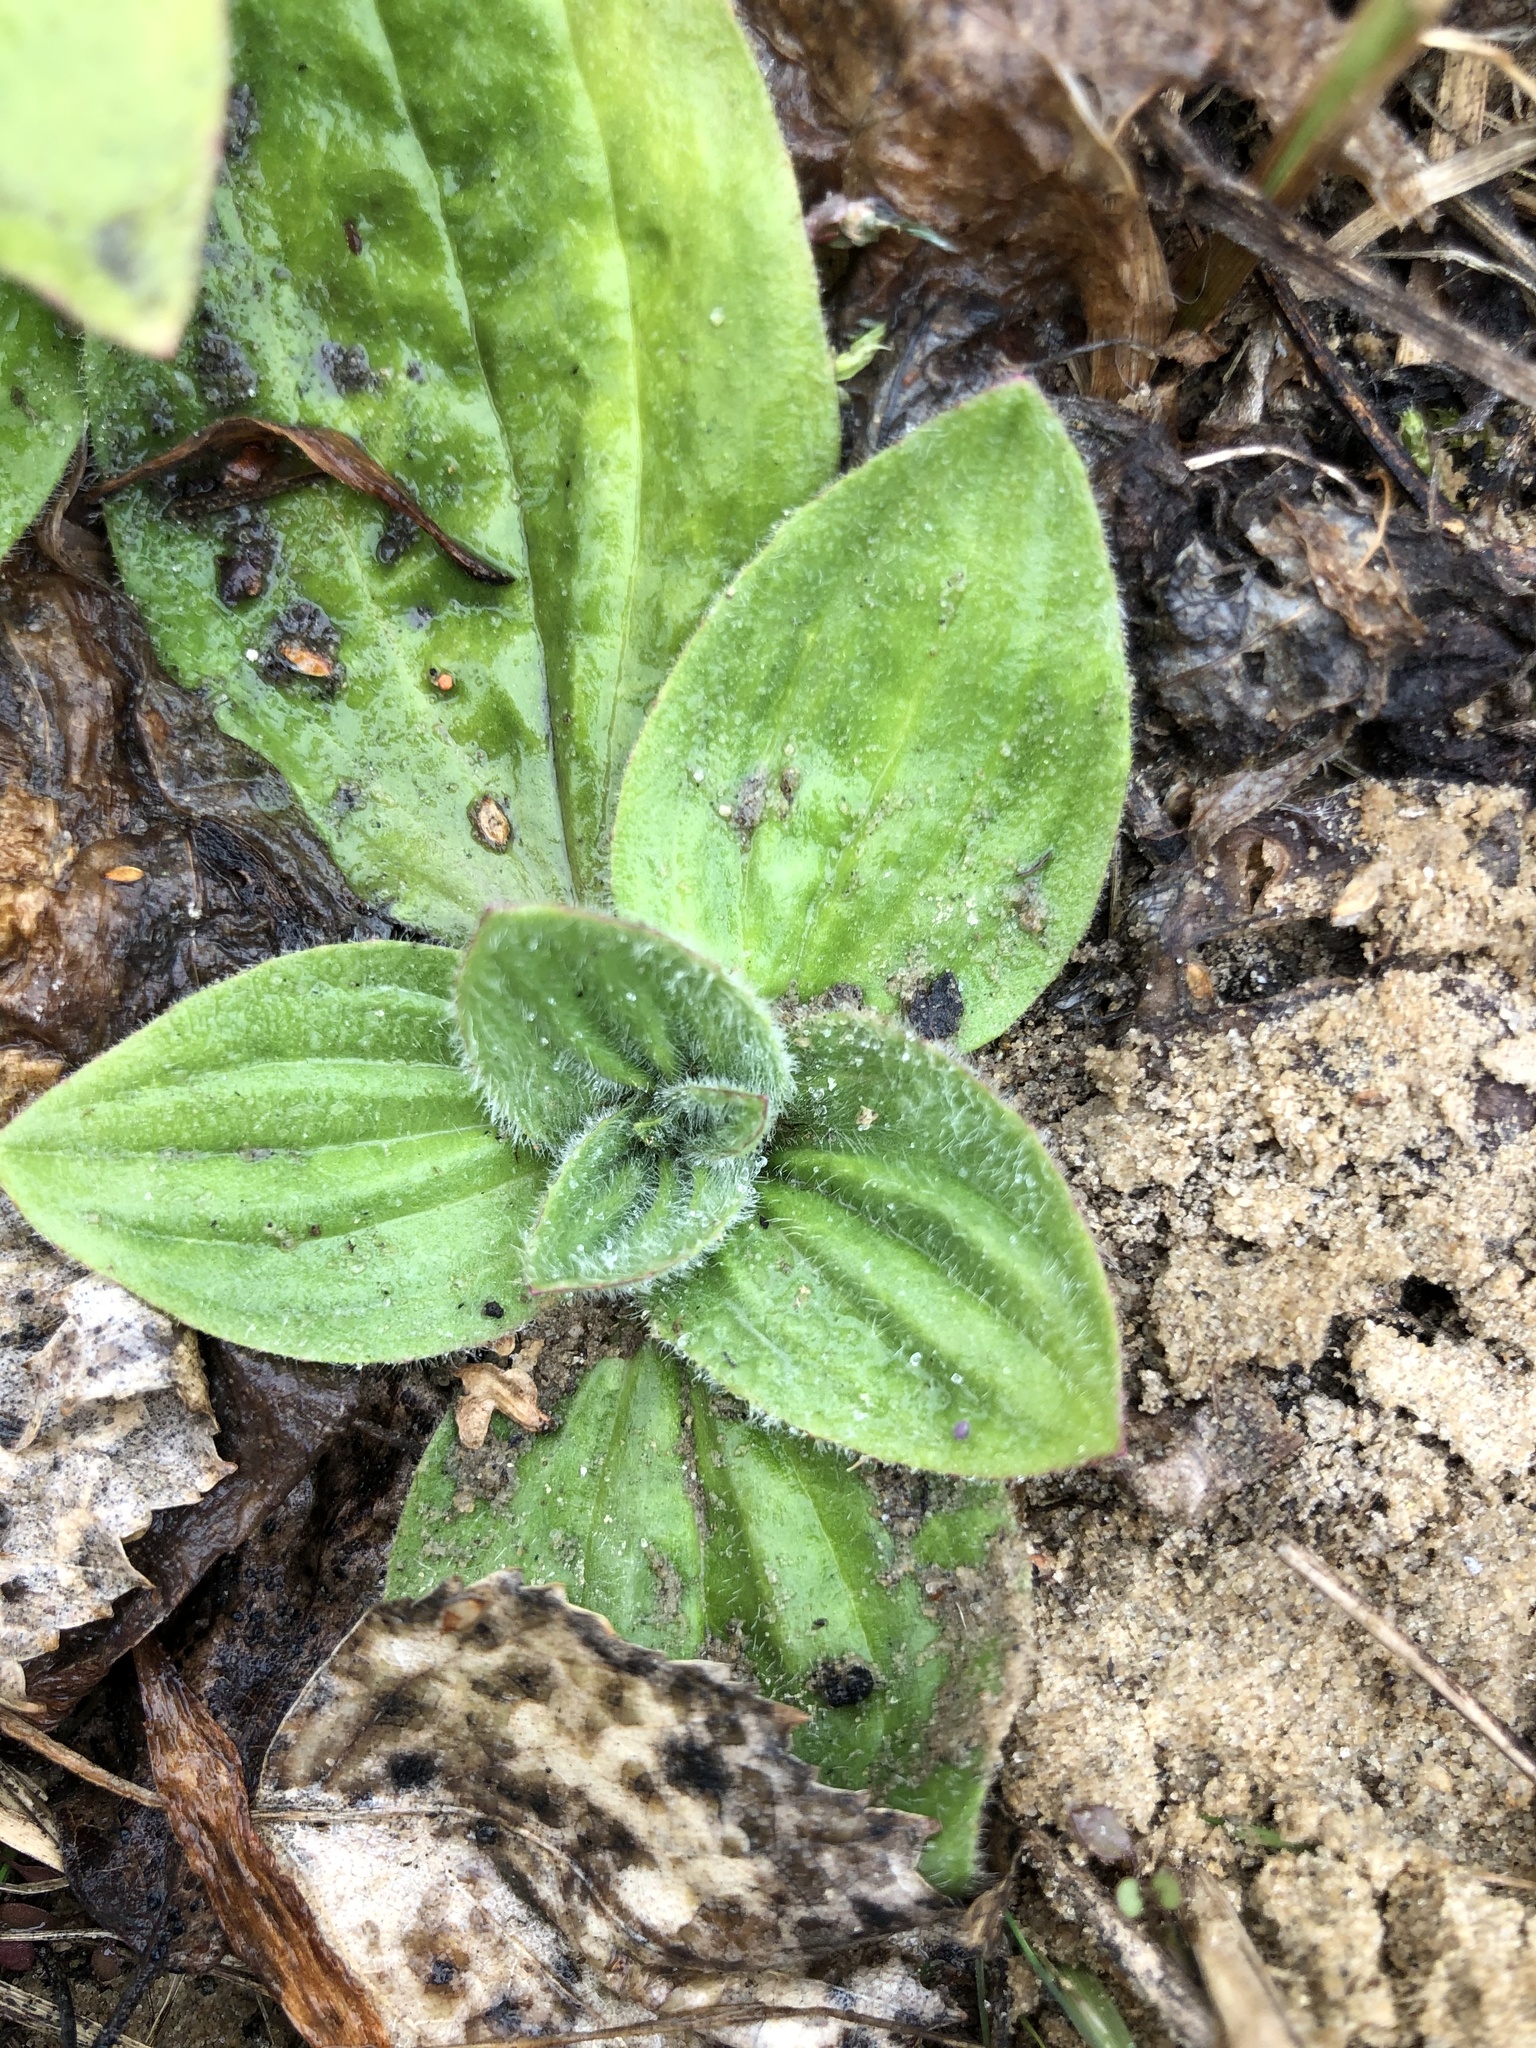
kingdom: Plantae
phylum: Tracheophyta
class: Magnoliopsida
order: Lamiales
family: Plantaginaceae
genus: Plantago
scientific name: Plantago media
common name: Hoary plantain
